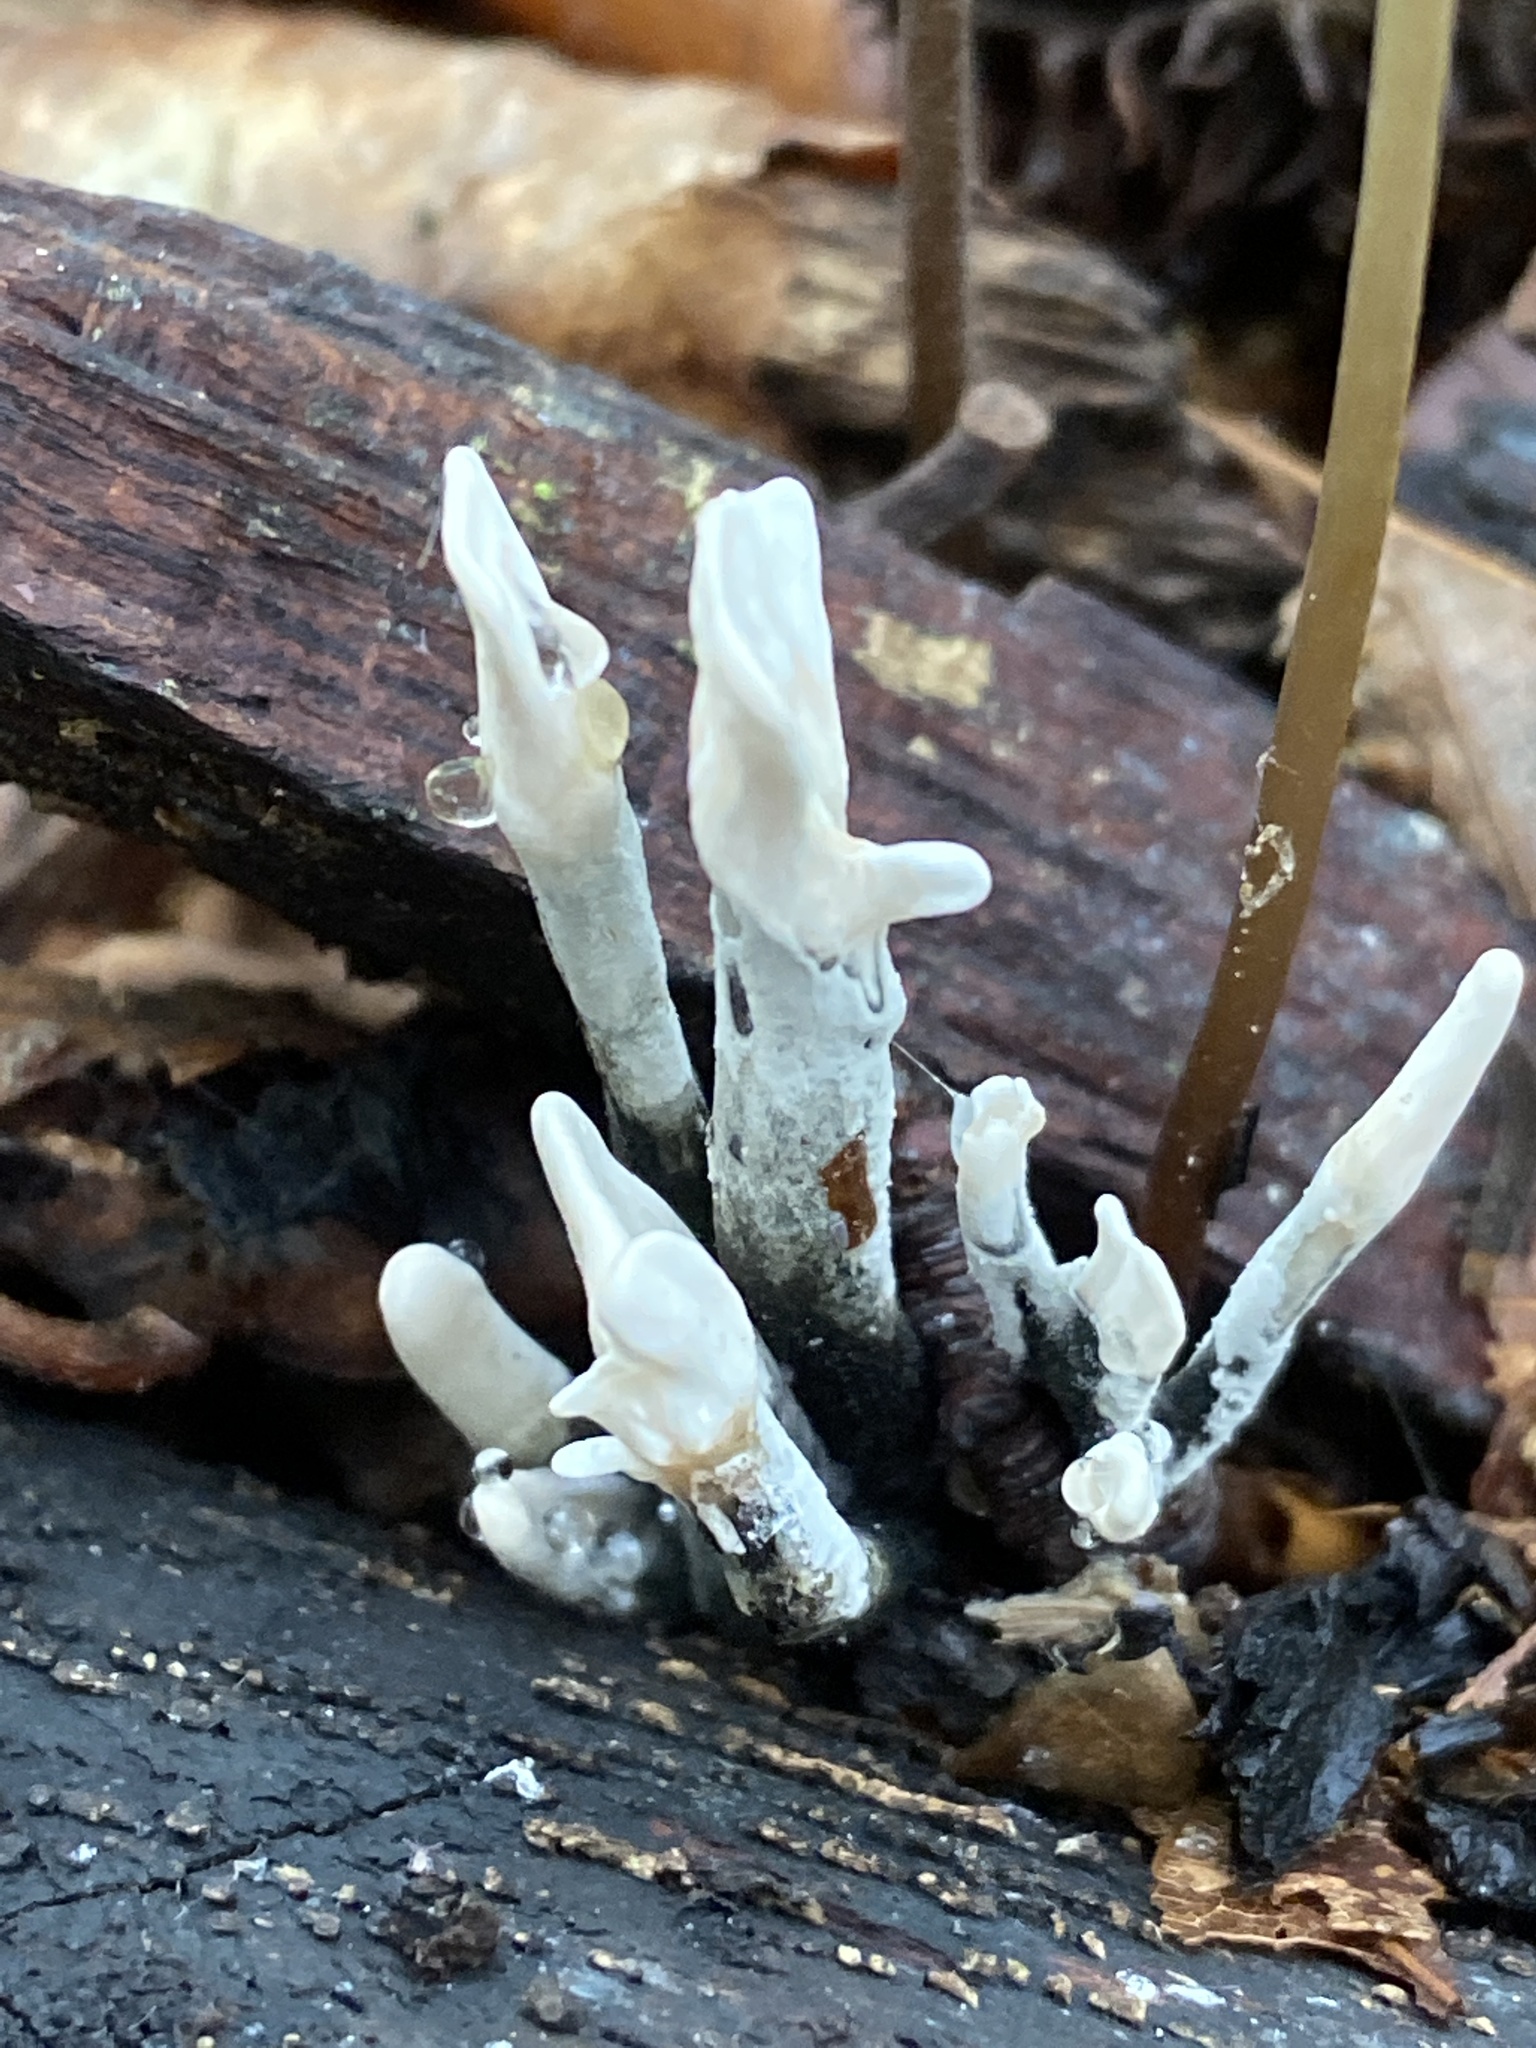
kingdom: Fungi
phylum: Ascomycota
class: Sordariomycetes
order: Xylariales
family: Xylariaceae
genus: Xylaria
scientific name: Xylaria hypoxylon
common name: Candle-snuff fungus
